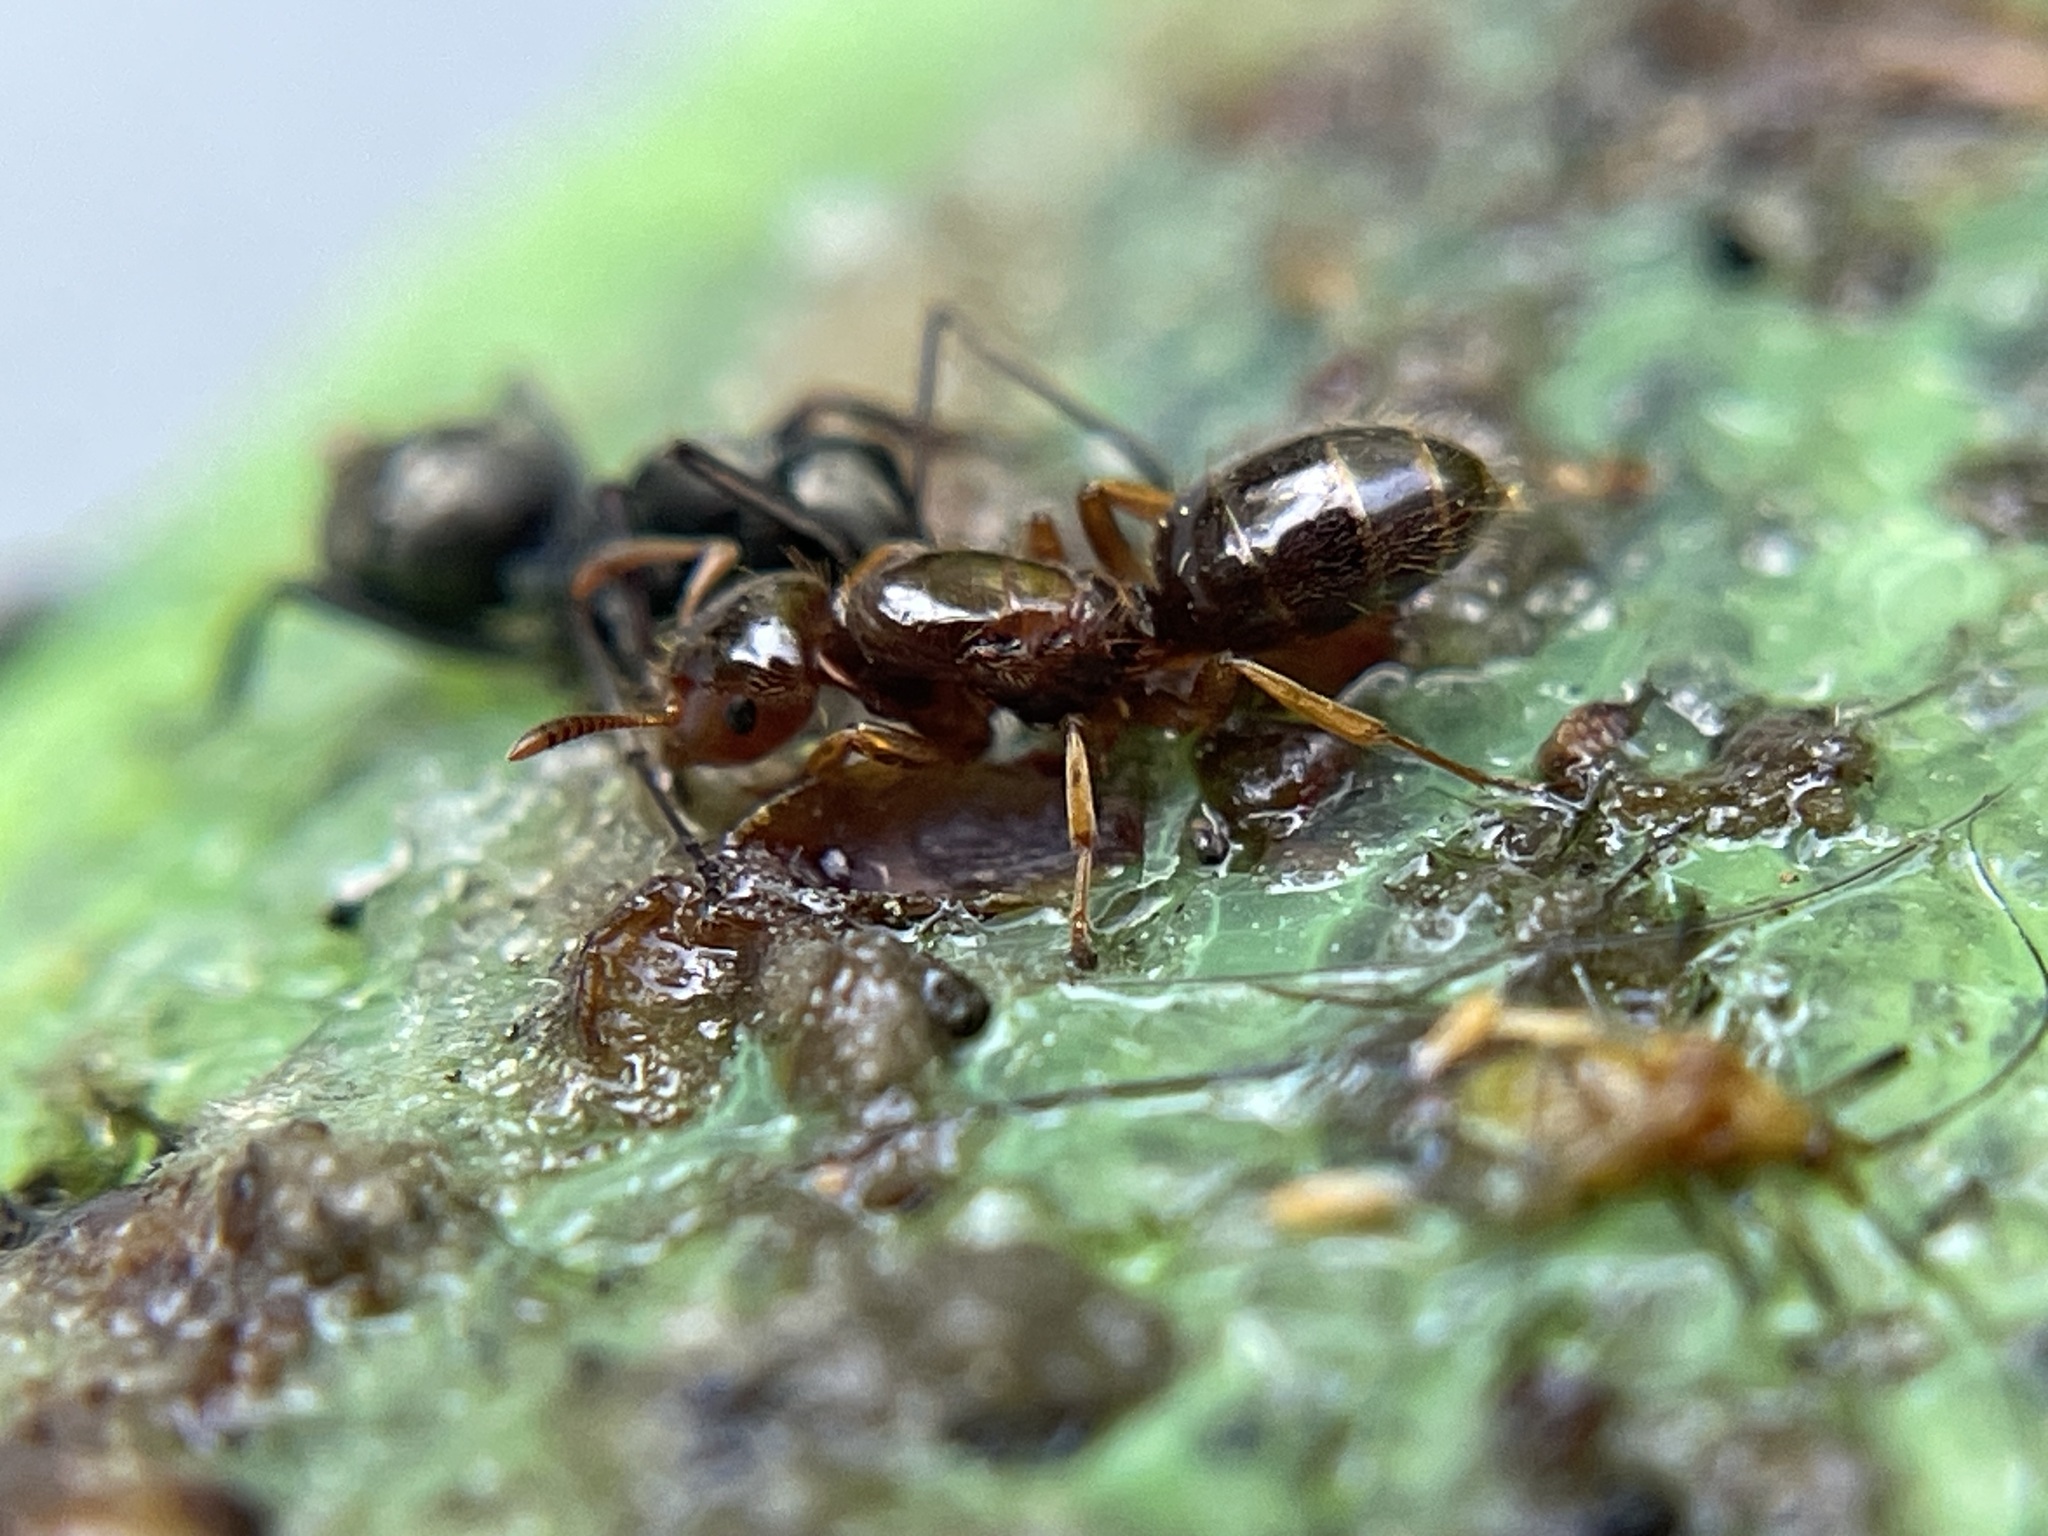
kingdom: Animalia
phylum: Arthropoda
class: Insecta
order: Hymenoptera
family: Formicidae
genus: Lasius
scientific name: Lasius claviger
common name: Common citronella ant
